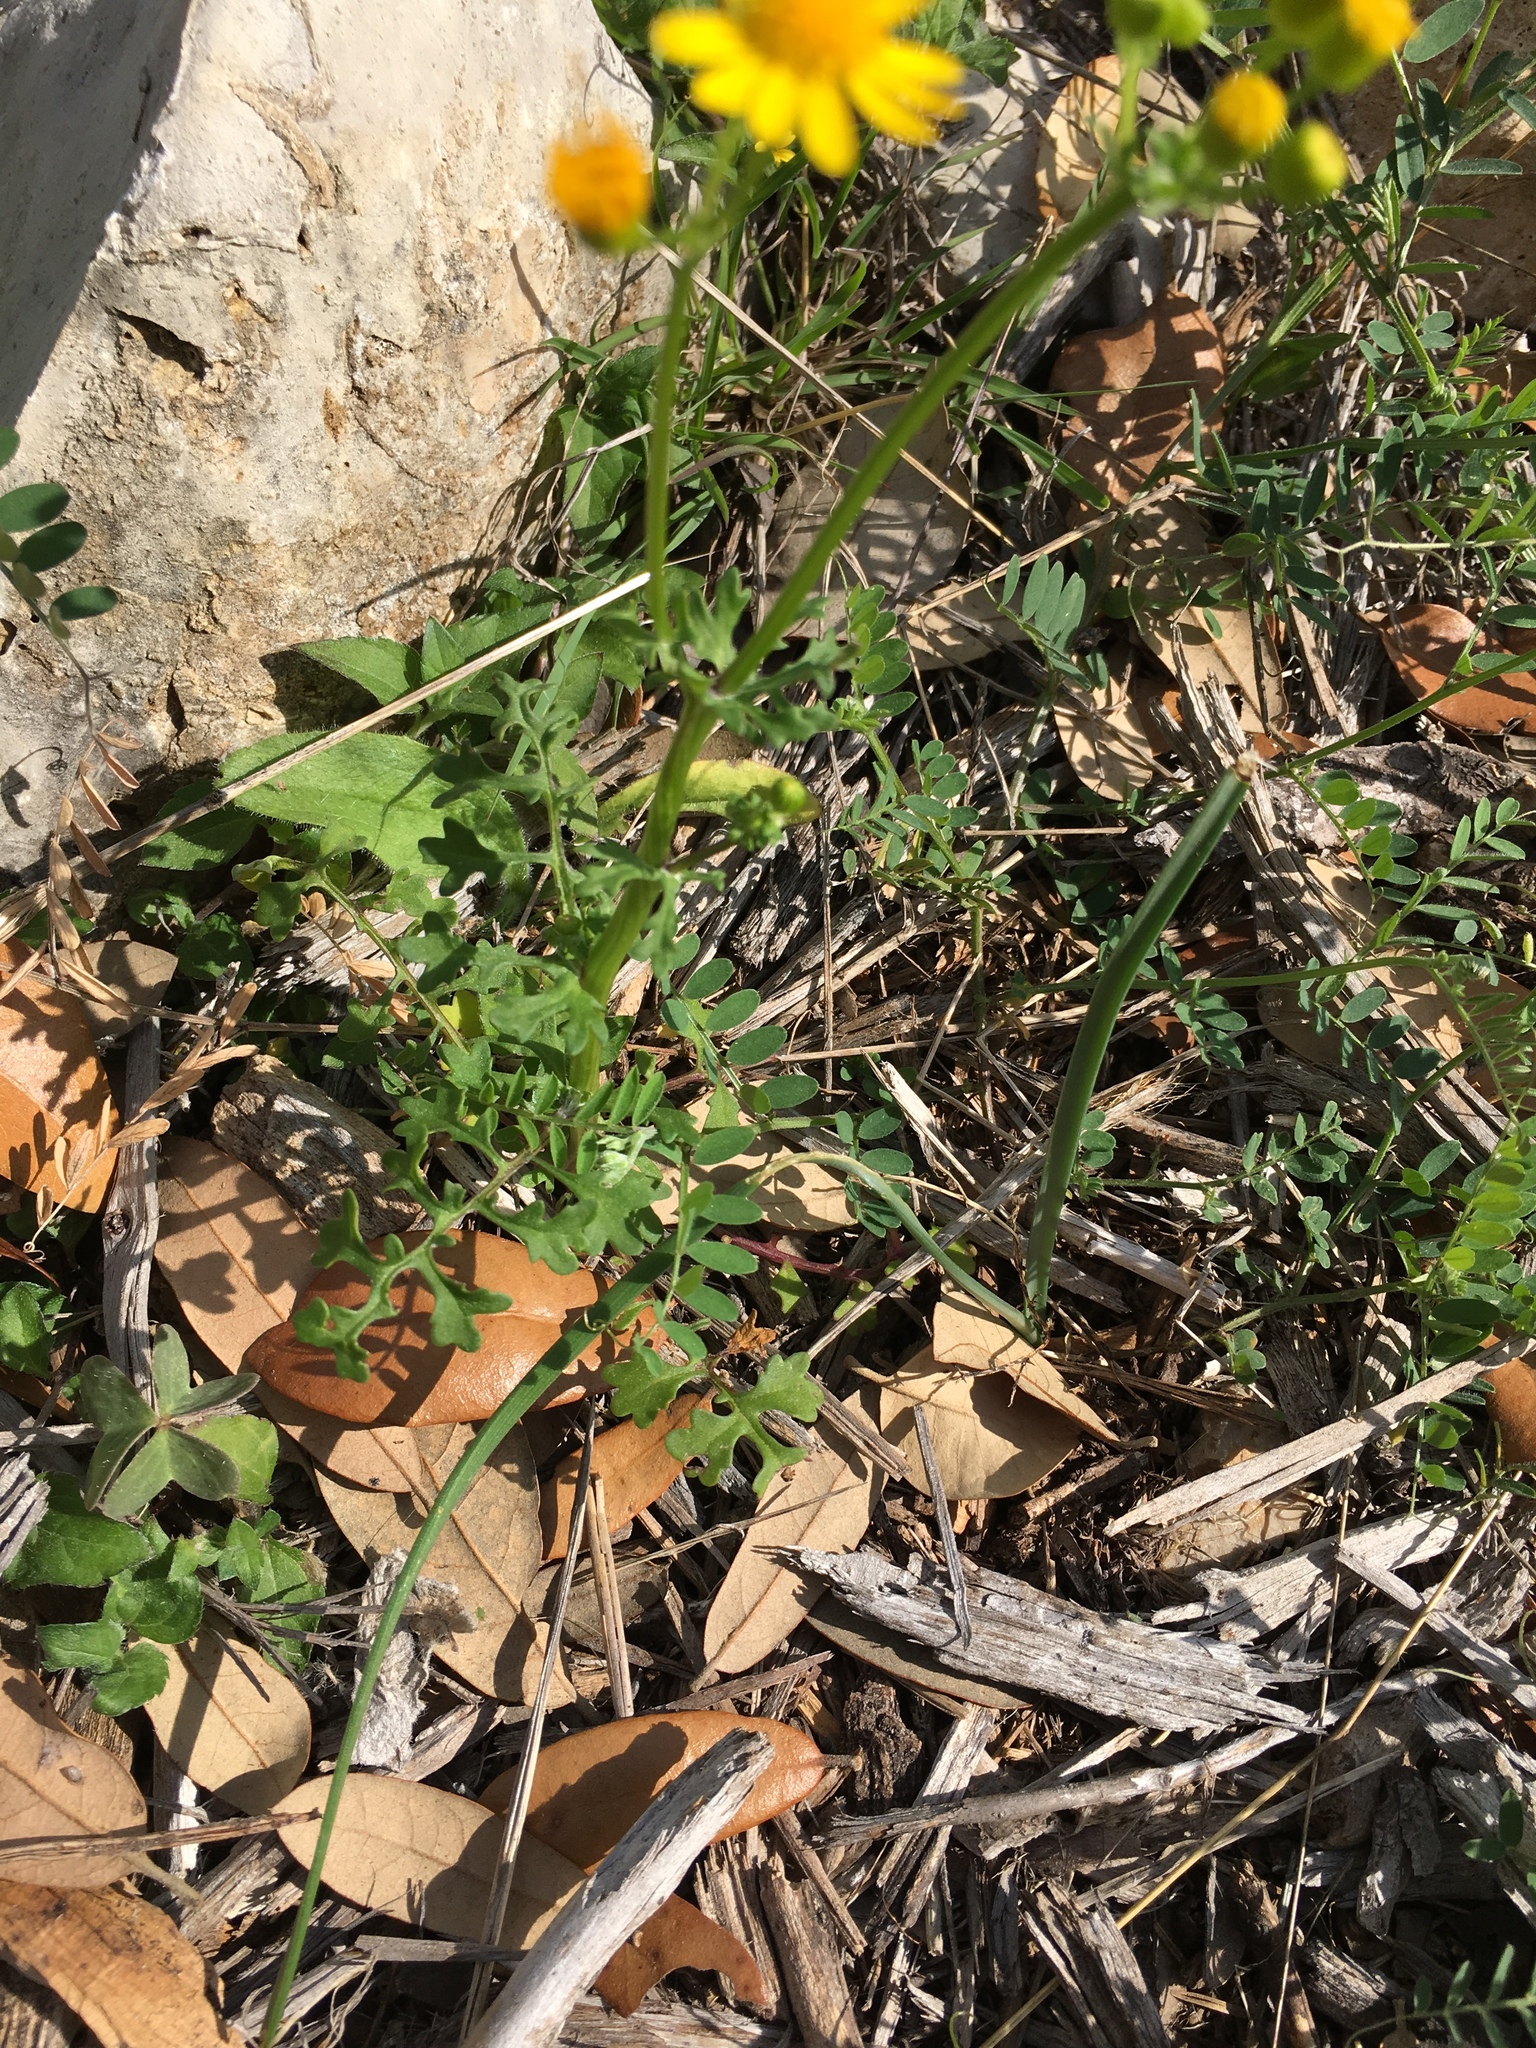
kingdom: Plantae
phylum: Tracheophyta
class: Magnoliopsida
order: Asterales
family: Asteraceae
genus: Packera
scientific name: Packera tampicana
